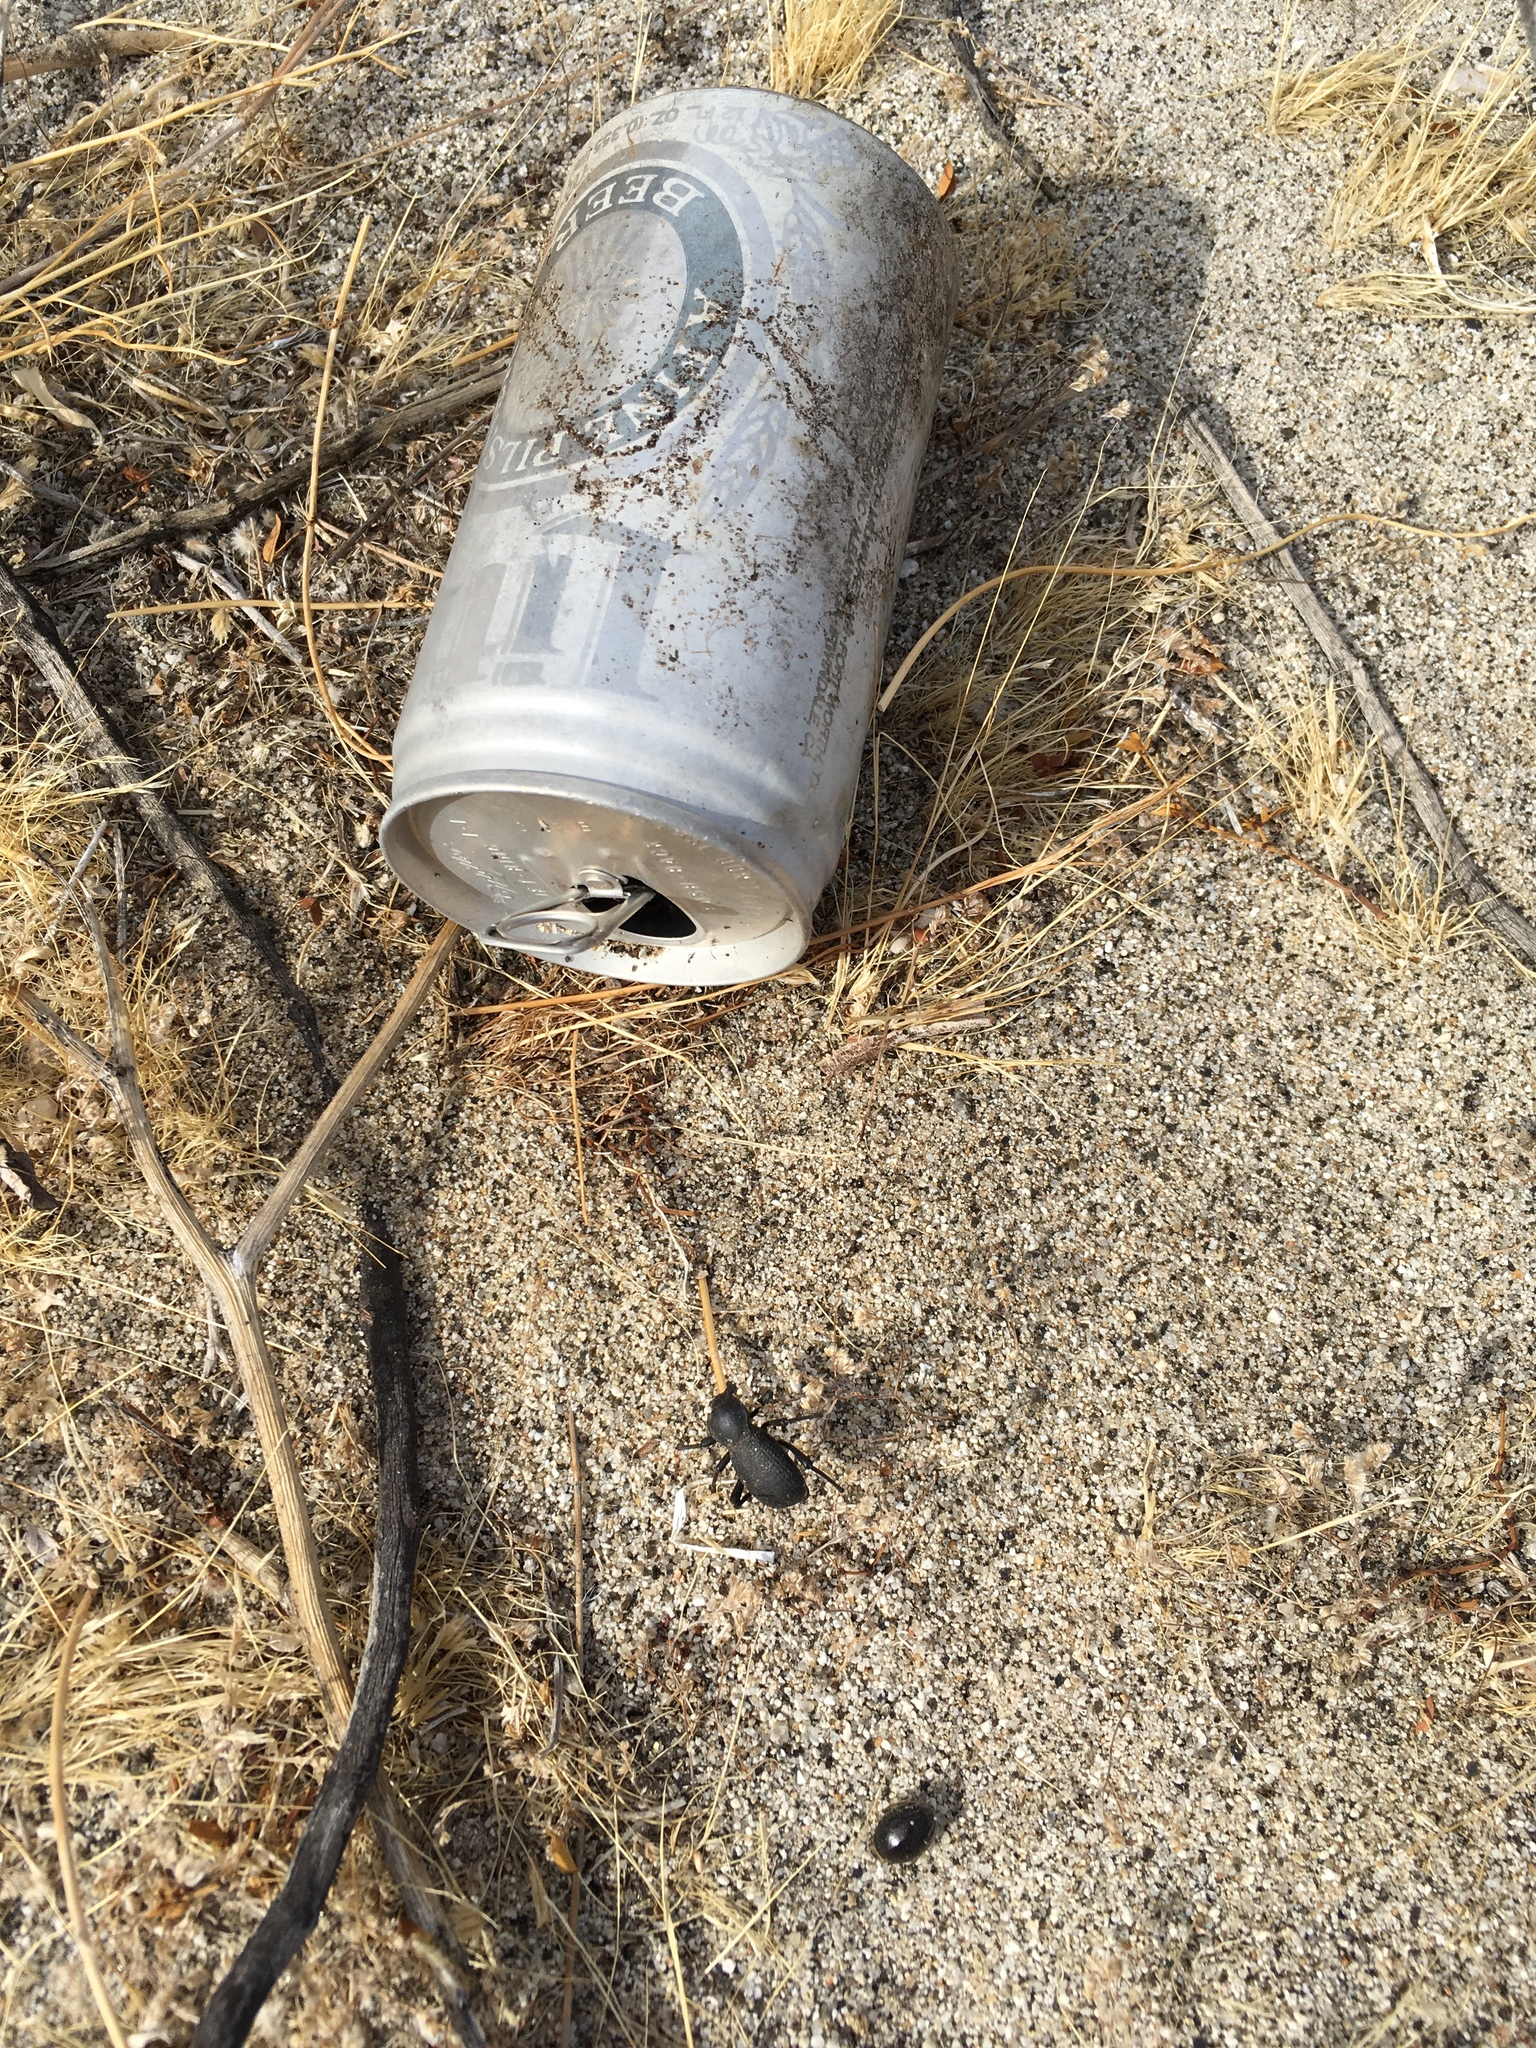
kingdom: Animalia
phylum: Arthropoda
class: Insecta
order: Coleoptera
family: Tenebrionidae
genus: Cryptoglossa
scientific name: Cryptoglossa muricata
